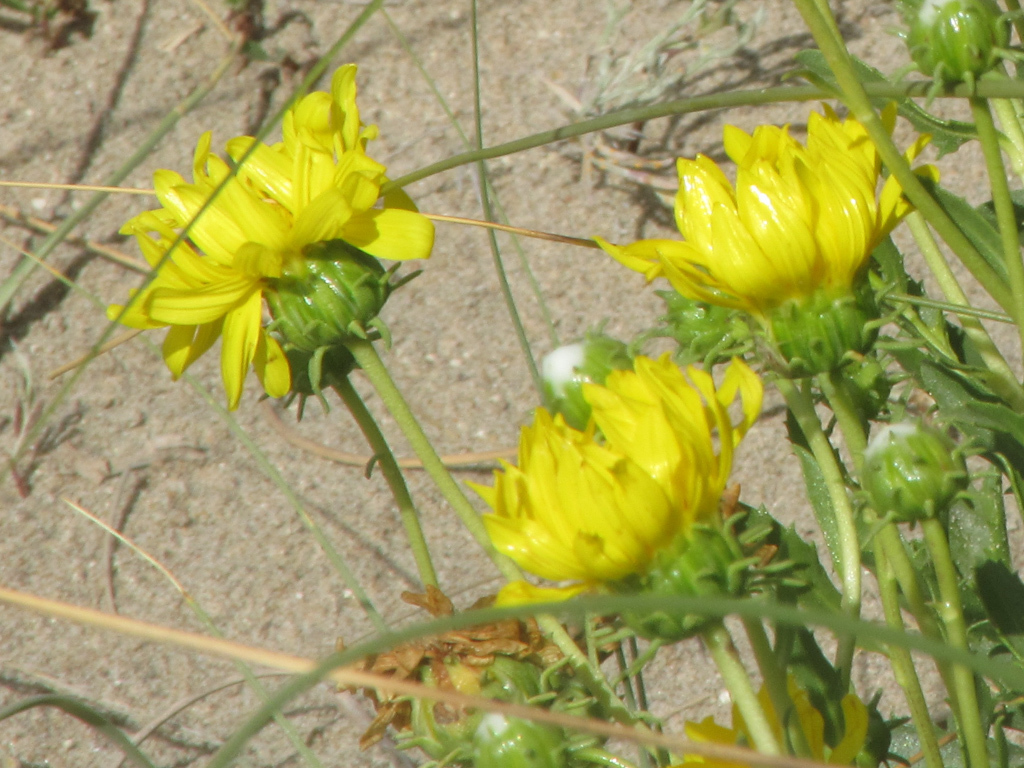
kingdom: Plantae
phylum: Tracheophyta
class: Magnoliopsida
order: Asterales
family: Asteraceae
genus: Grindelia
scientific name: Grindelia chiloensis
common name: Shrubby gumweed
